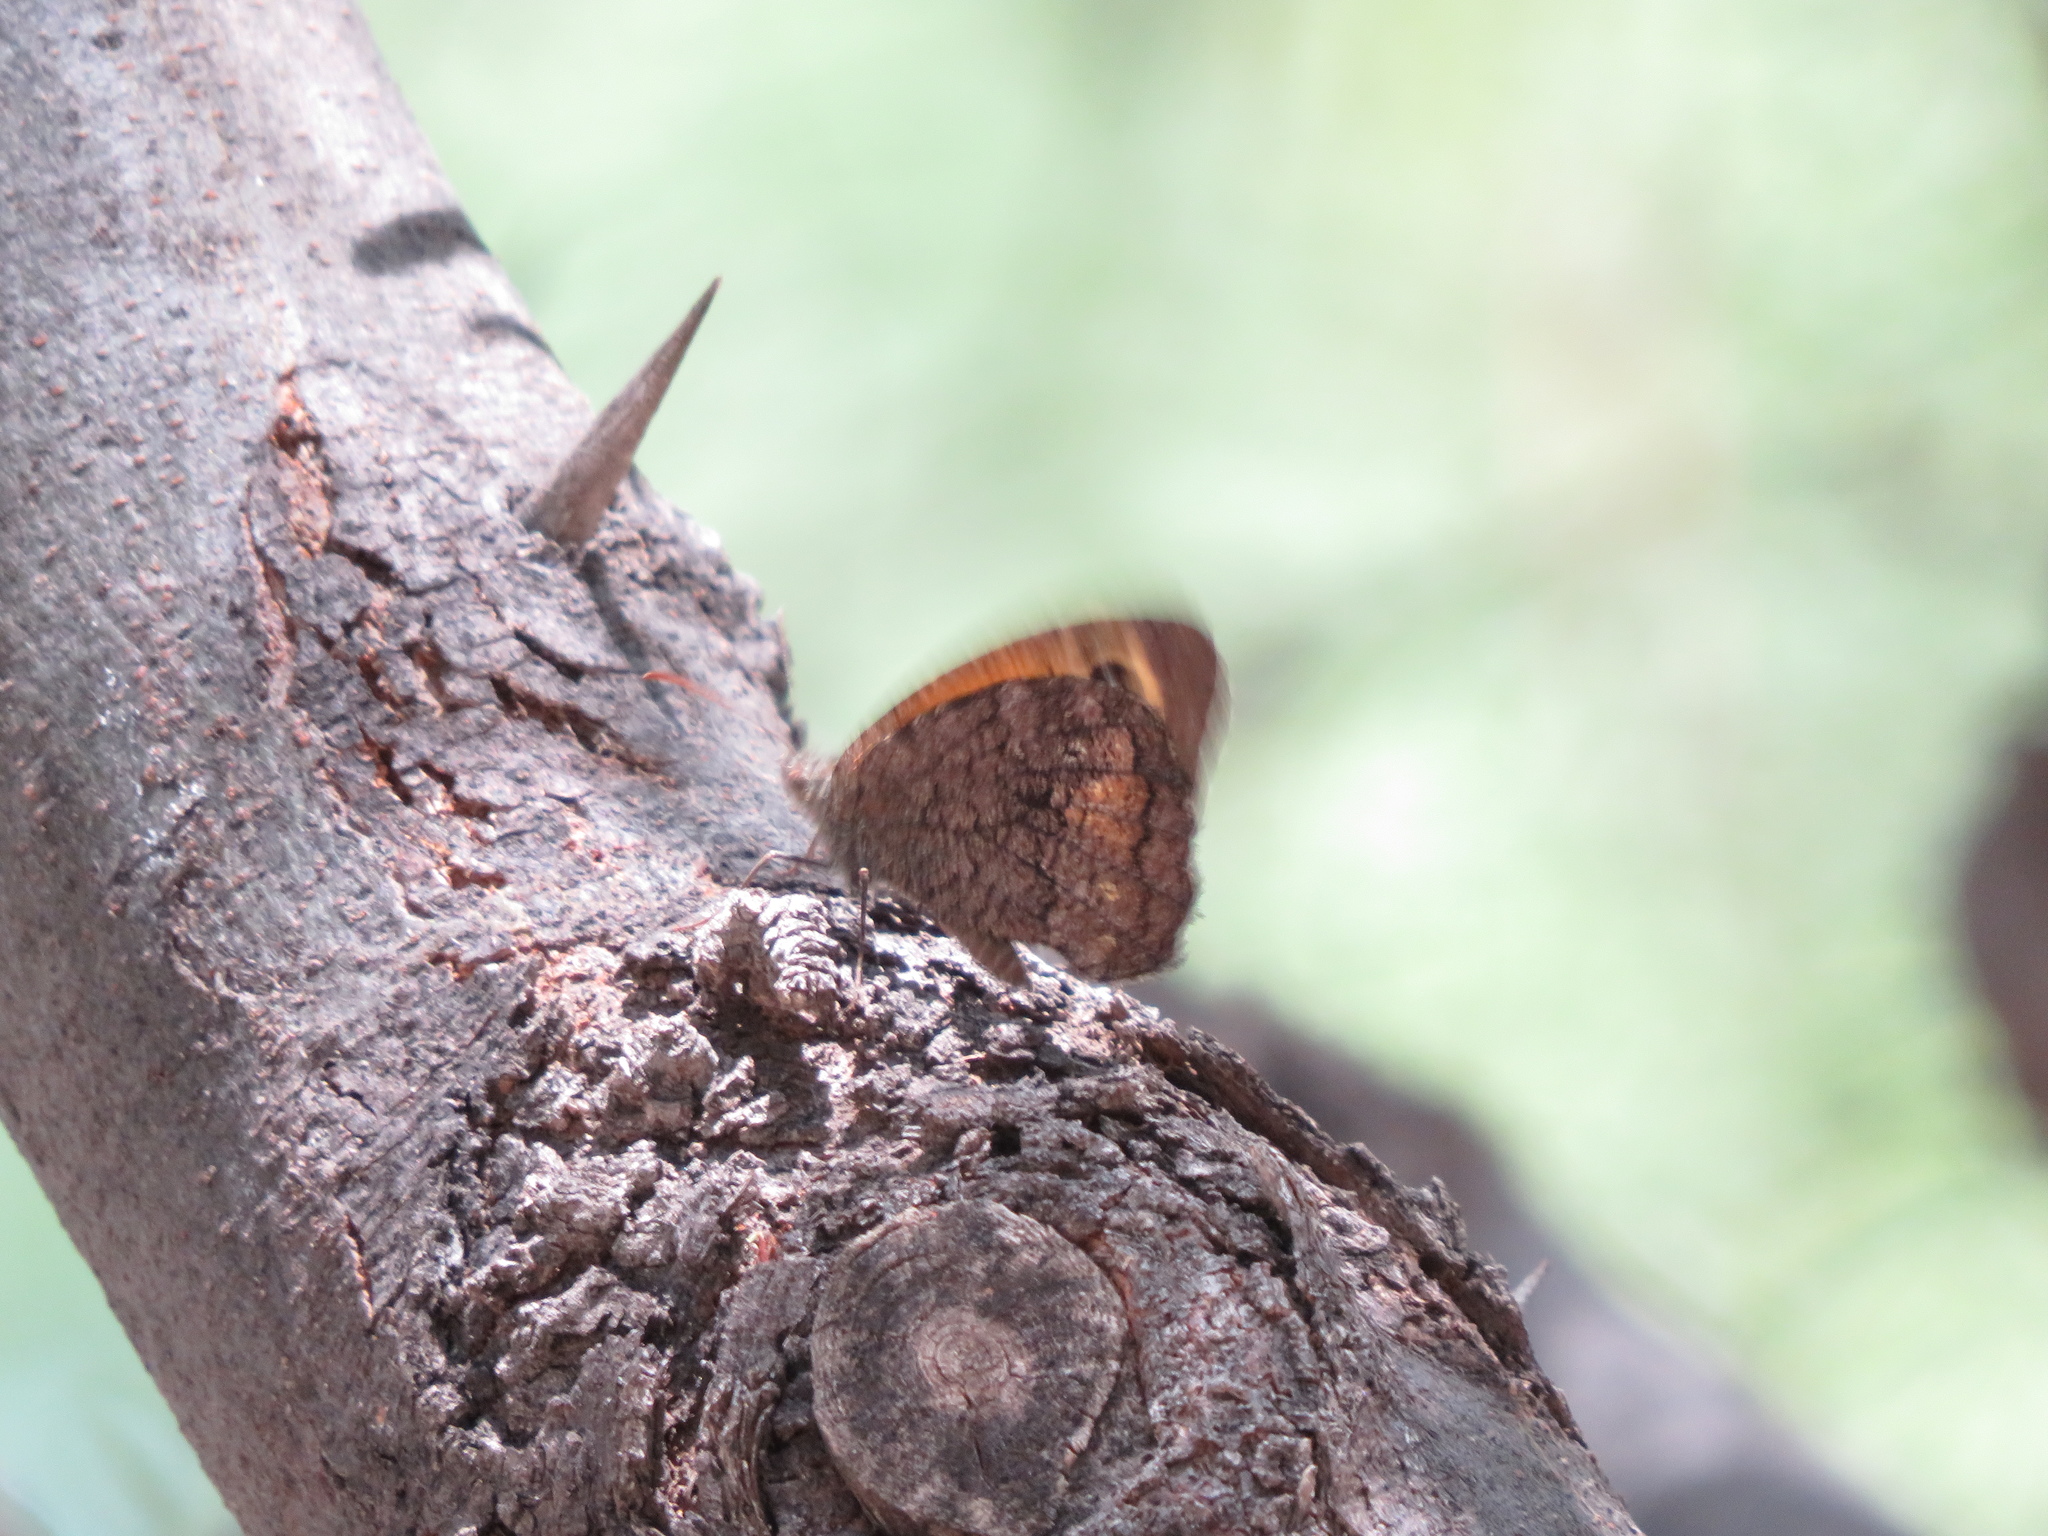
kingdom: Animalia
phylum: Arthropoda
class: Insecta
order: Lepidoptera
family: Nymphalidae
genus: Haywardella
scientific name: Haywardella edmondsii
